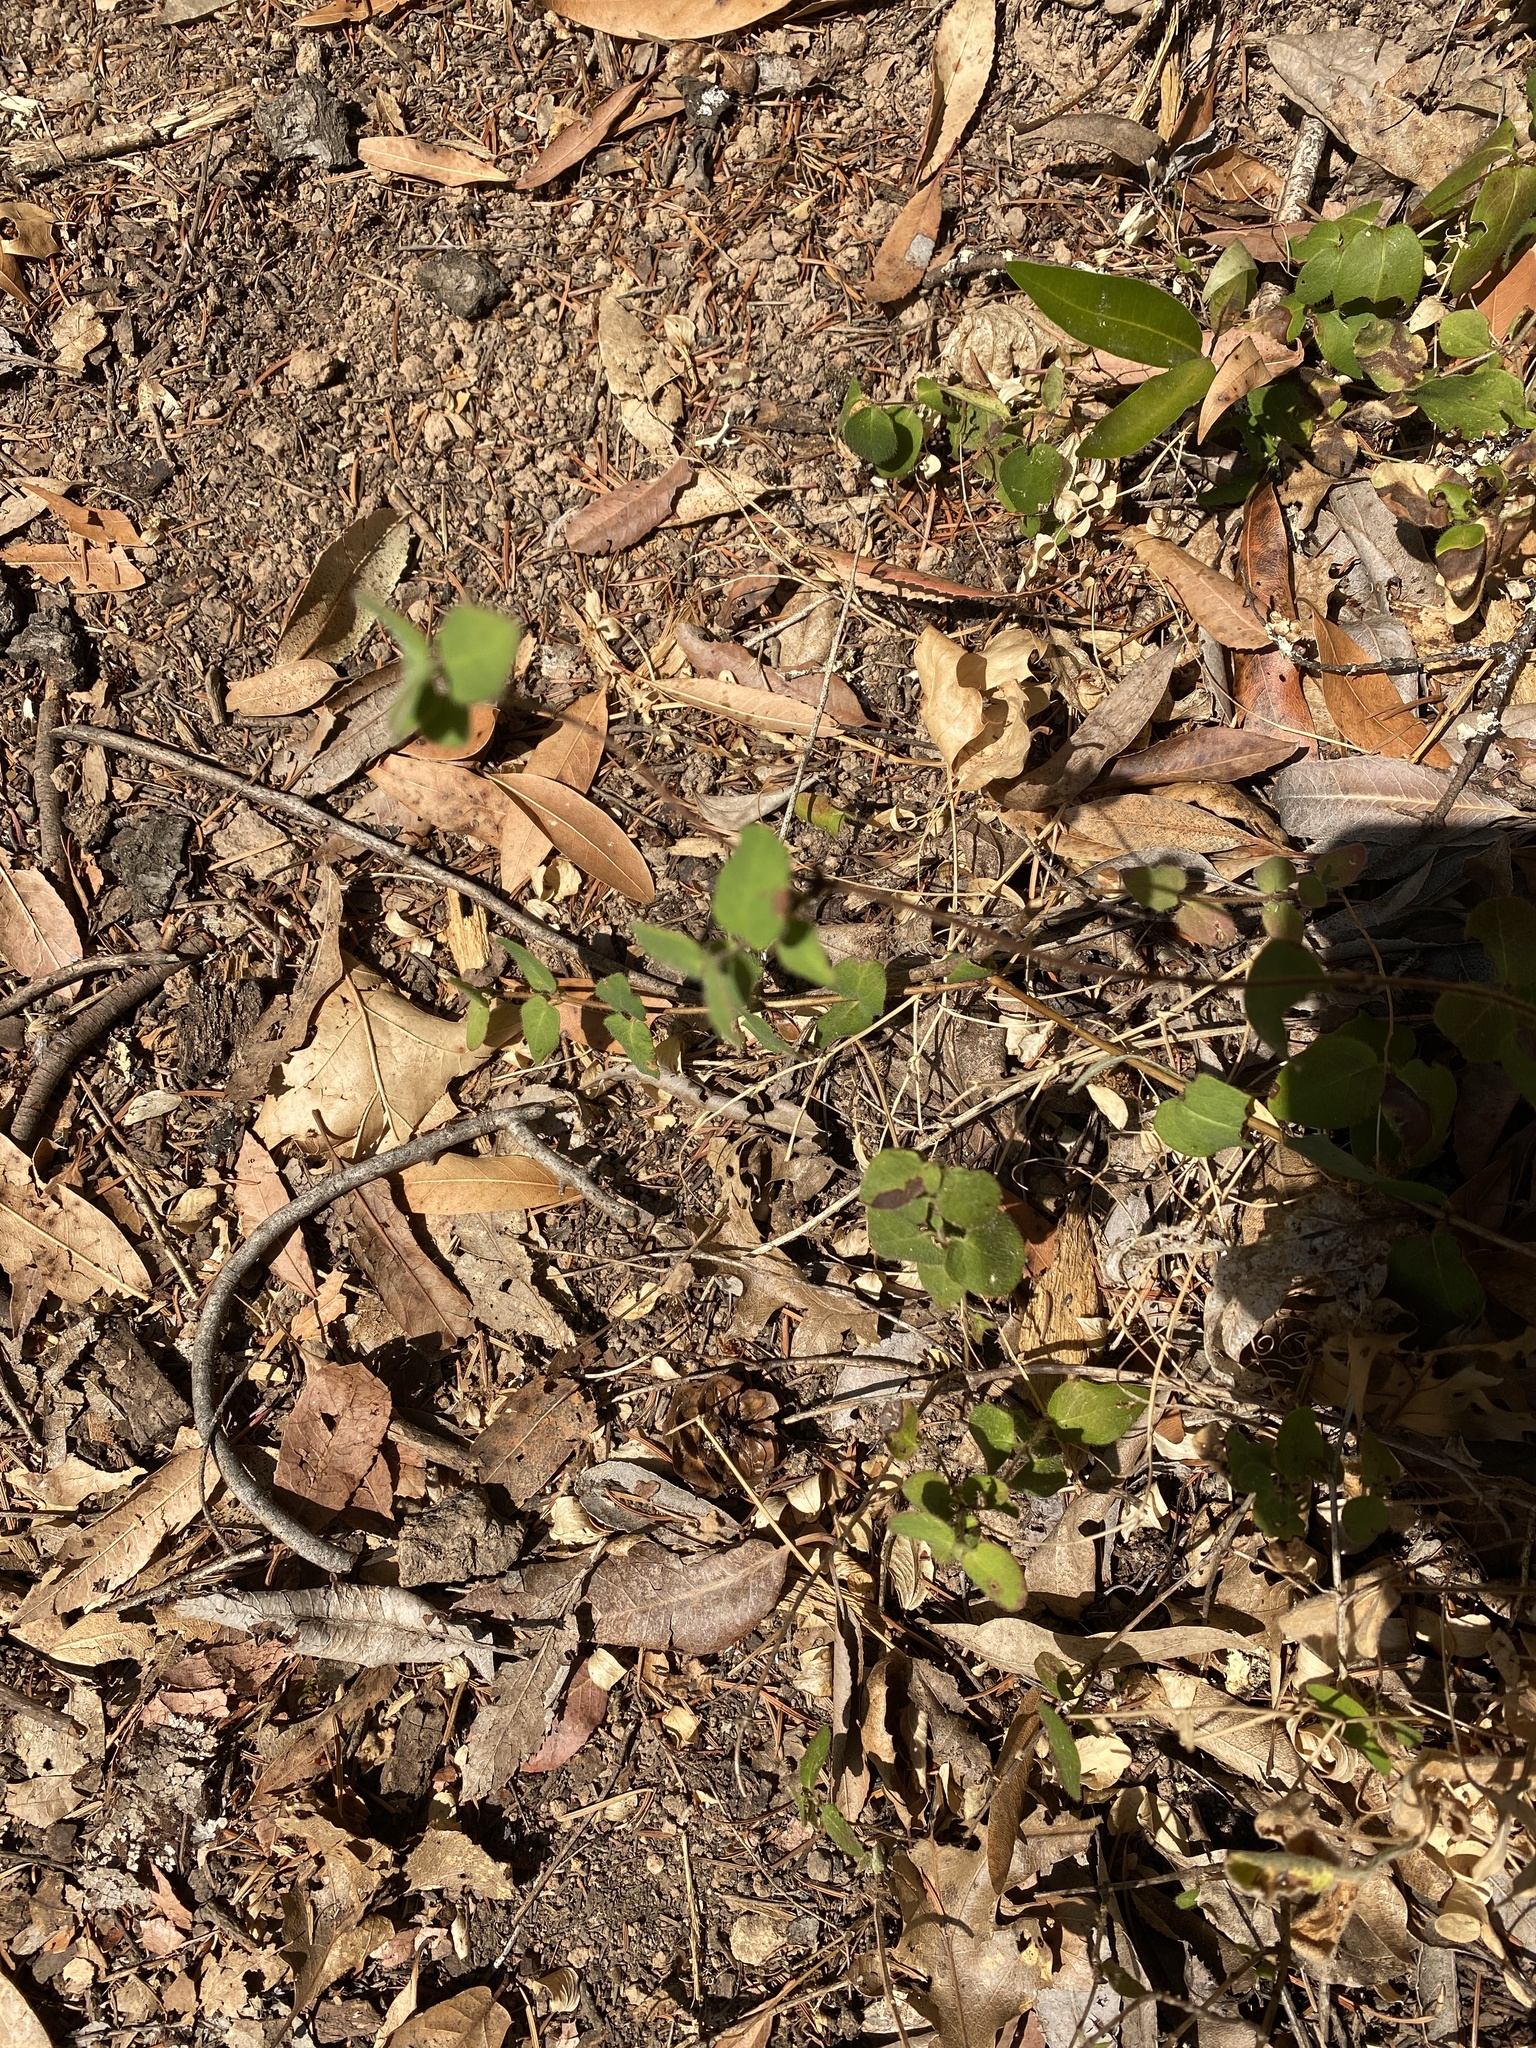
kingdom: Plantae
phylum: Tracheophyta
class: Magnoliopsida
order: Dipsacales
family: Caprifoliaceae
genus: Lonicera
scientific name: Lonicera hispidula
